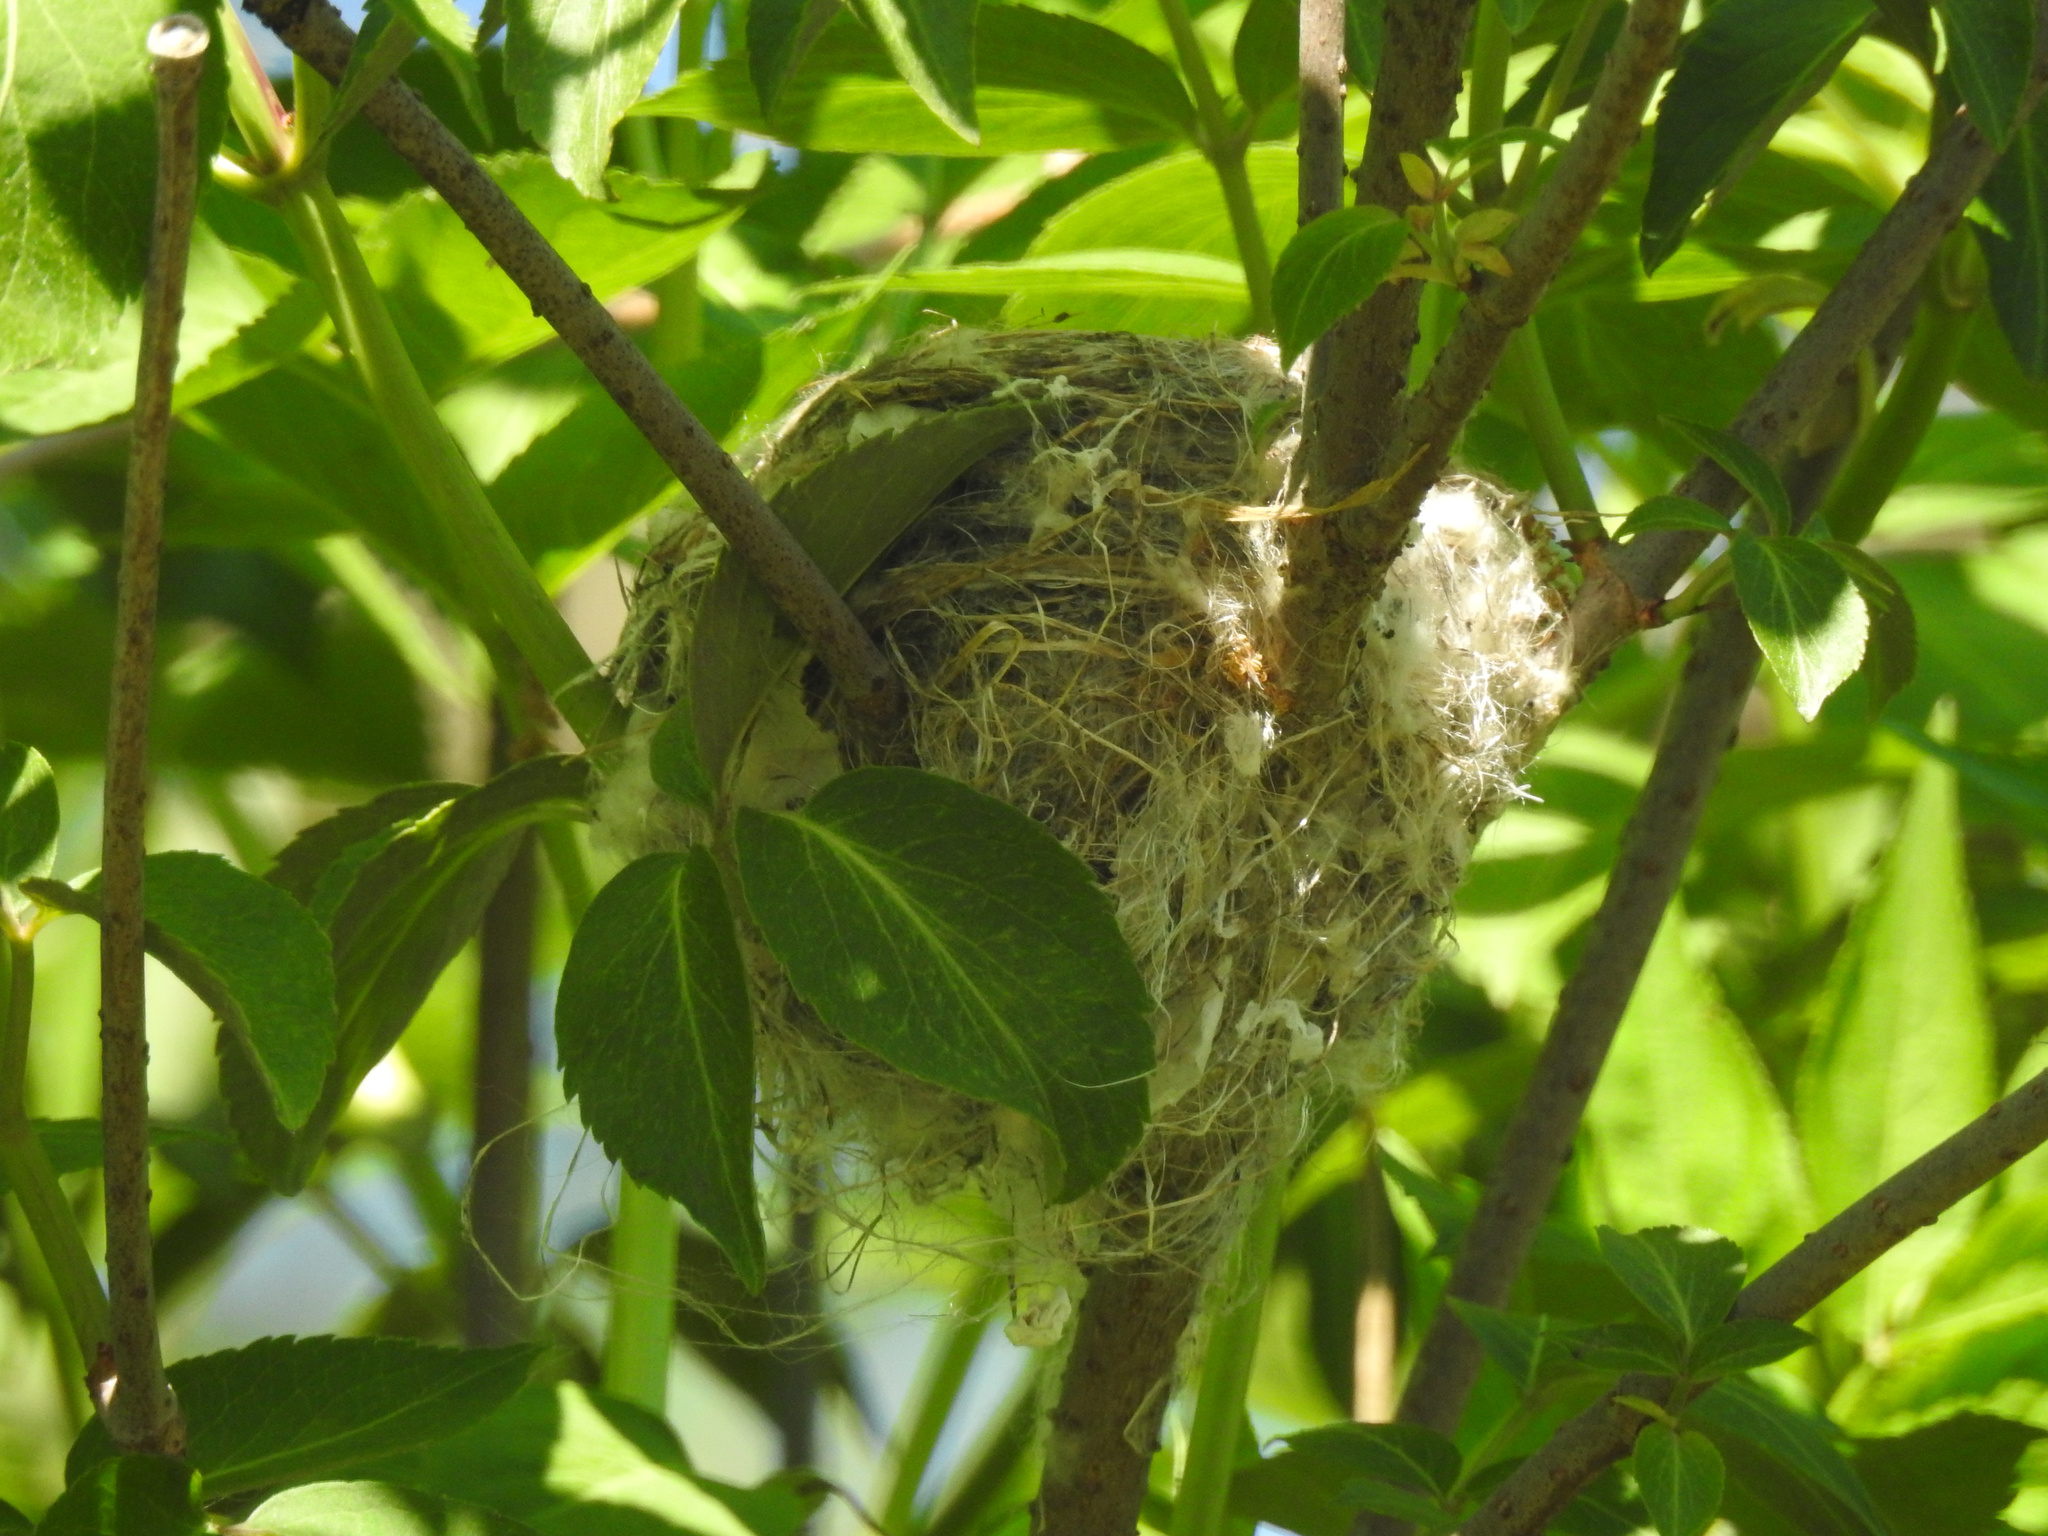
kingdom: Animalia
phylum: Chordata
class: Aves
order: Passeriformes
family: Fringillidae
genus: Spinus
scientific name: Spinus tristis
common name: American goldfinch
